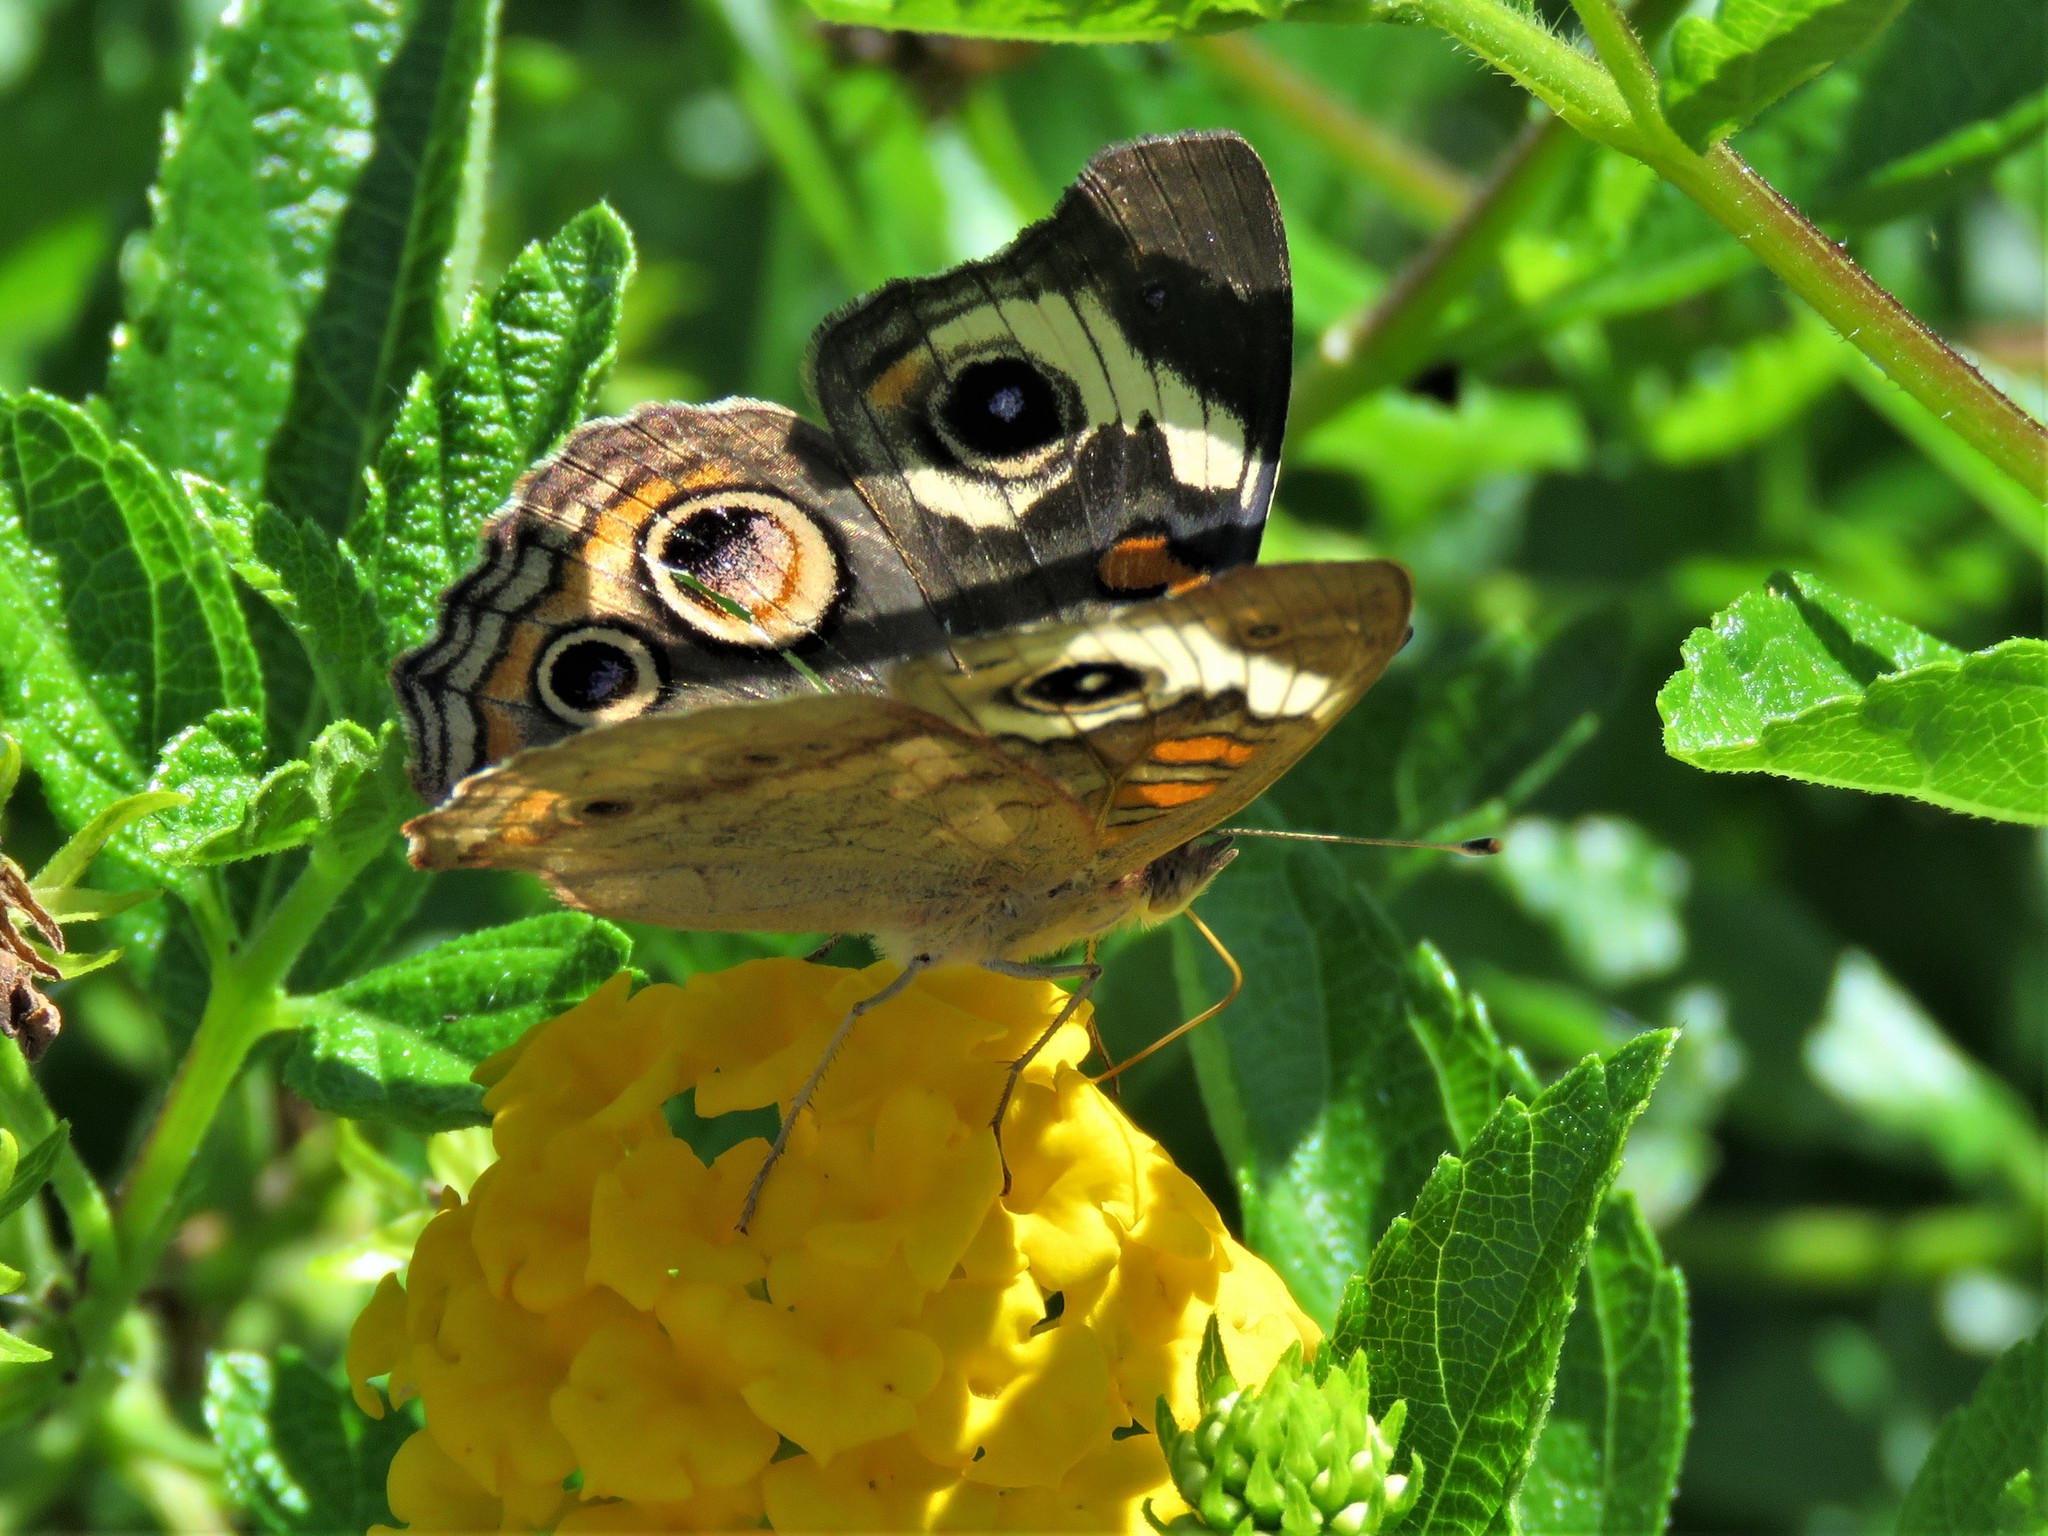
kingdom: Animalia
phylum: Arthropoda
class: Insecta
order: Lepidoptera
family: Nymphalidae
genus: Junonia
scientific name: Junonia coenia
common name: Common buckeye
